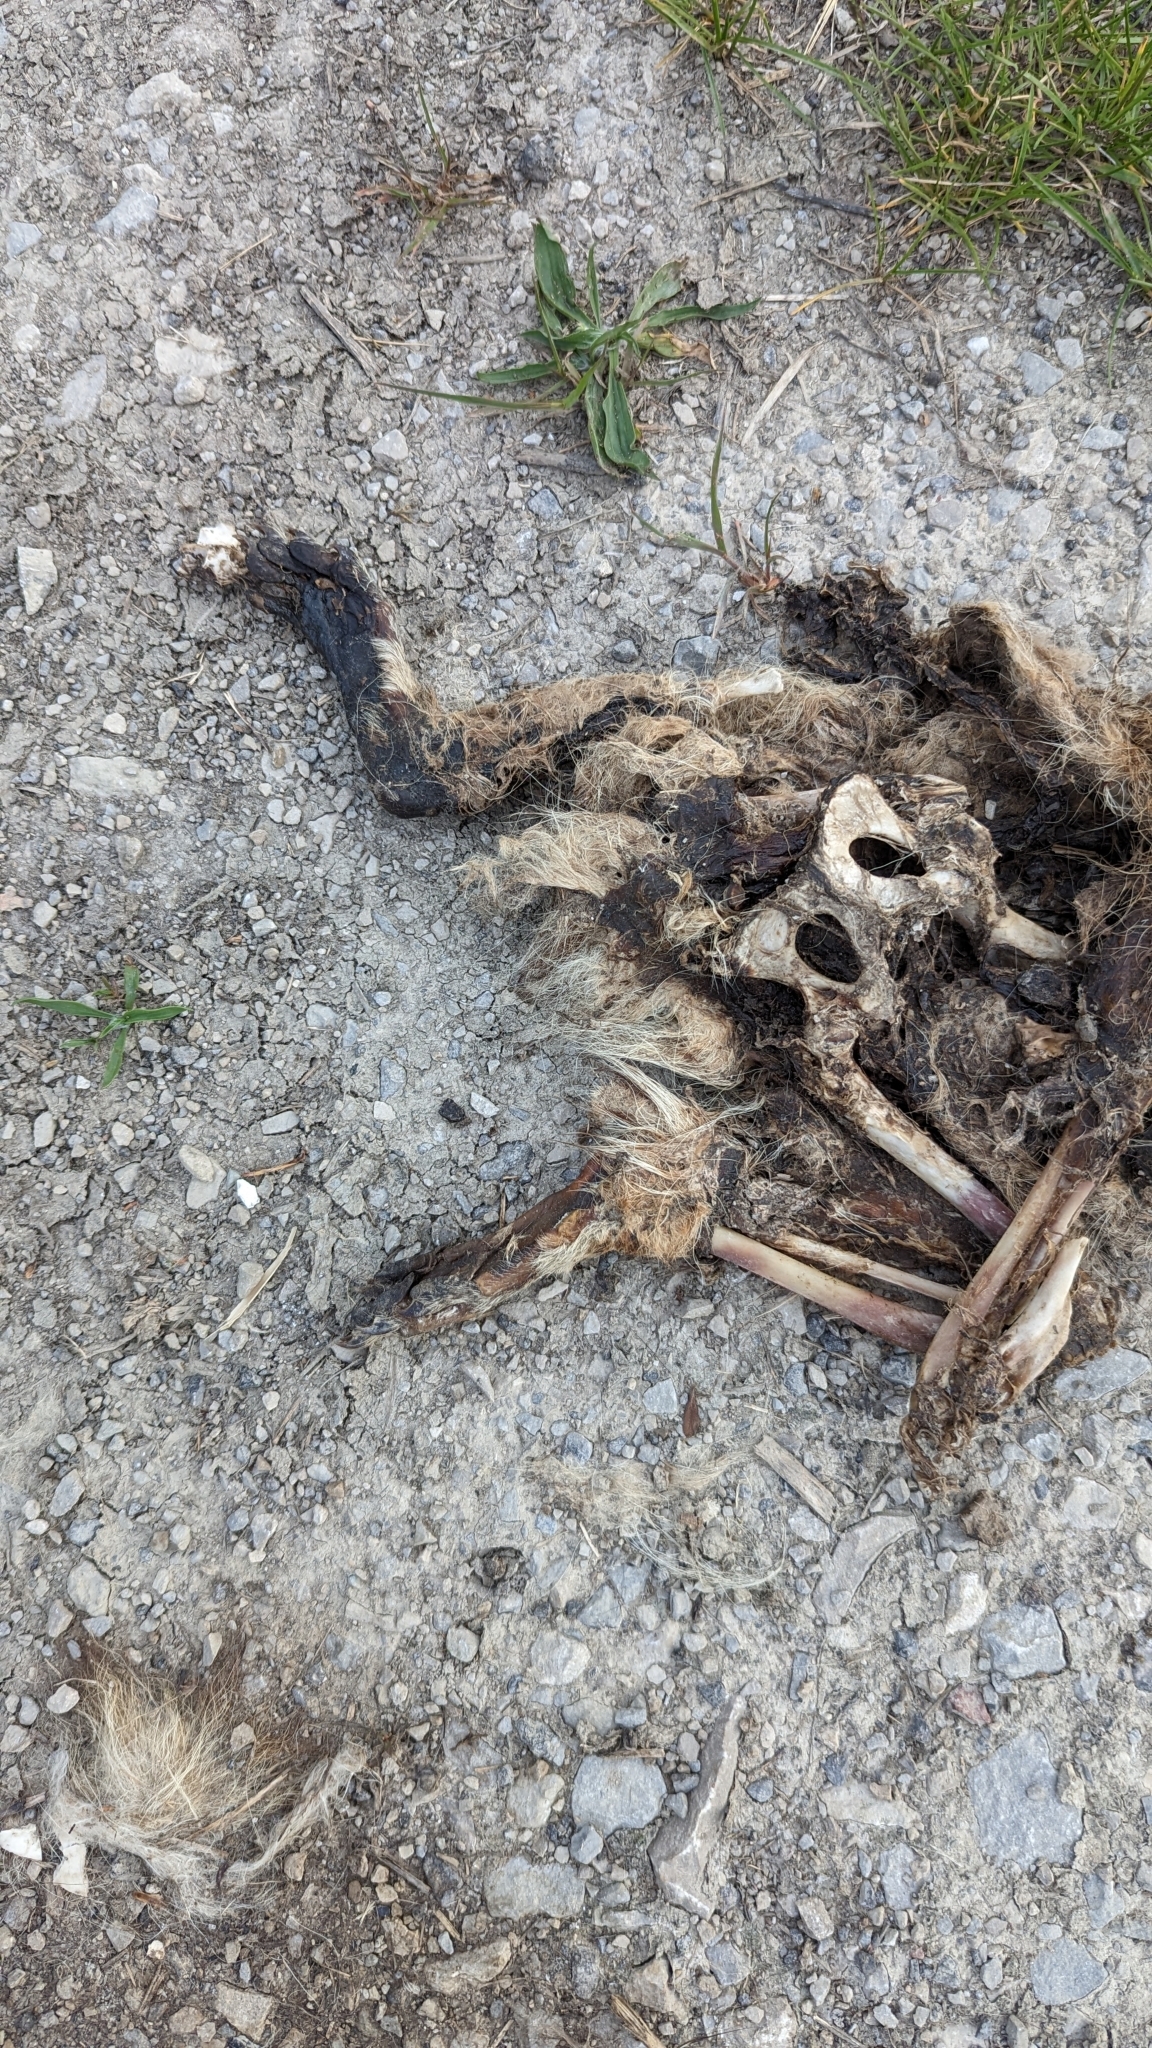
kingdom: Animalia
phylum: Chordata
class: Mammalia
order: Carnivora
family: Procyonidae
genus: Procyon
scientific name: Procyon lotor
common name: Raccoon
